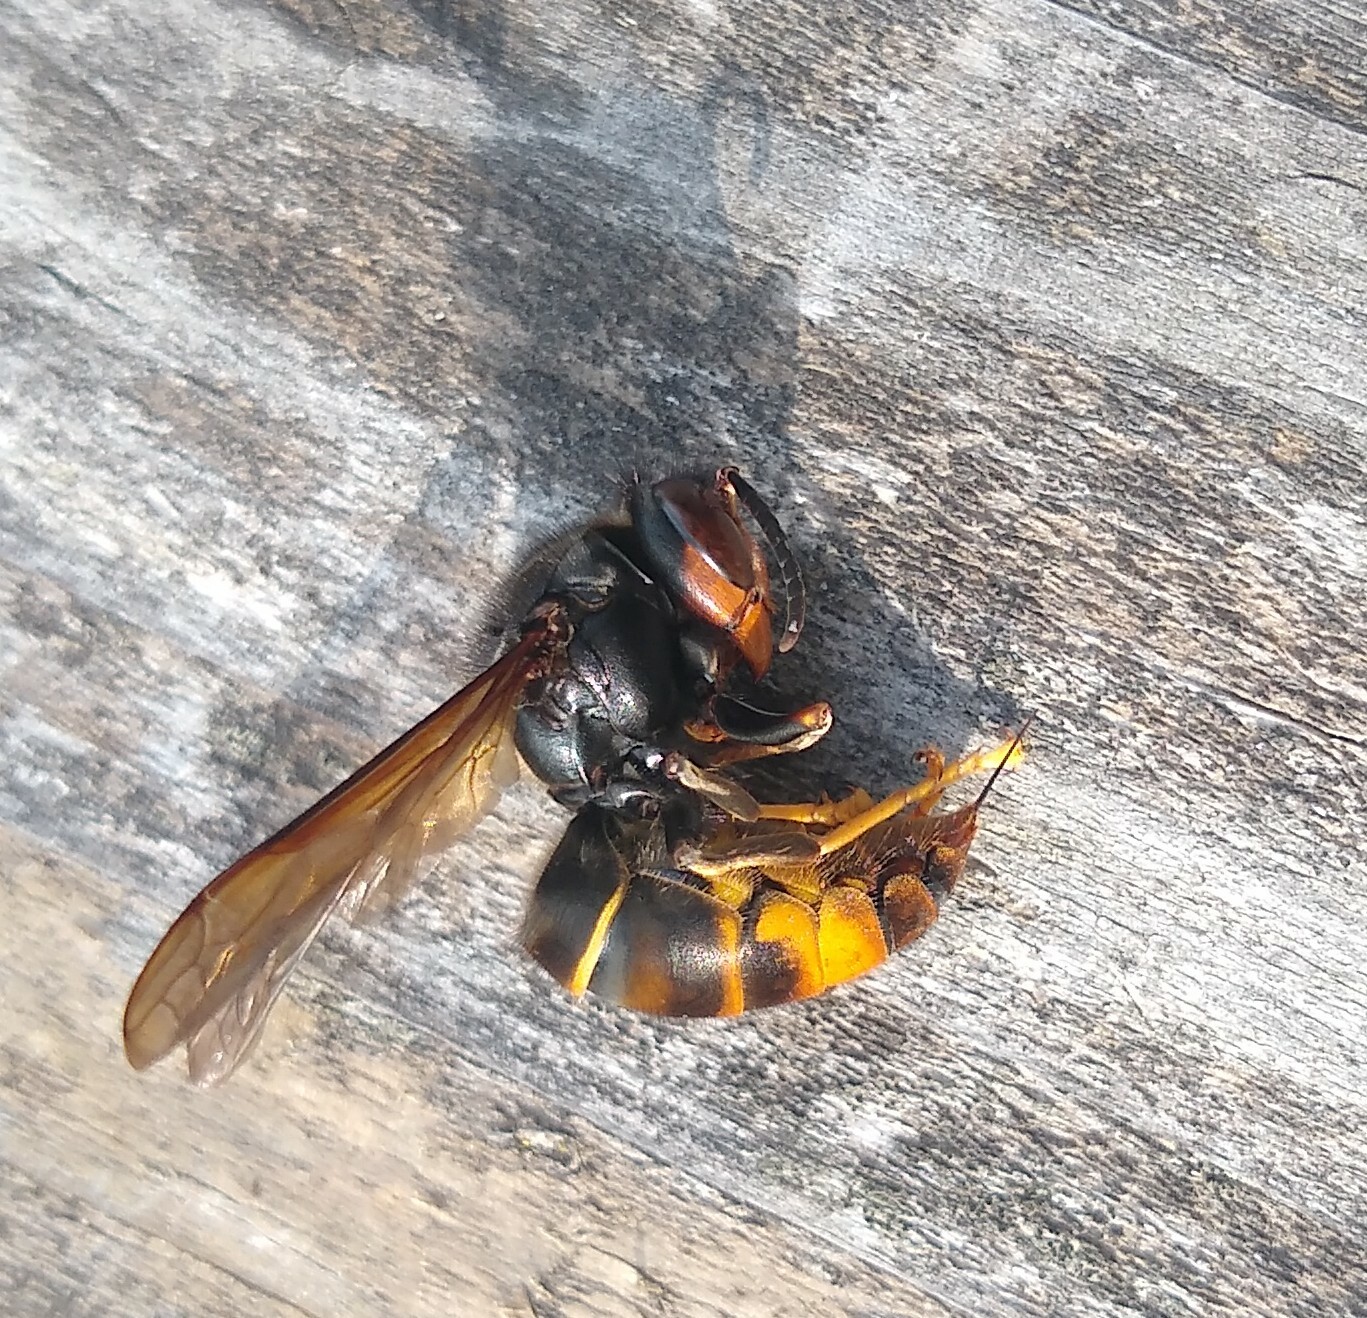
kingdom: Animalia
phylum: Arthropoda
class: Insecta
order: Hymenoptera
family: Vespidae
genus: Vespa
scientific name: Vespa velutina
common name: Asian hornet
